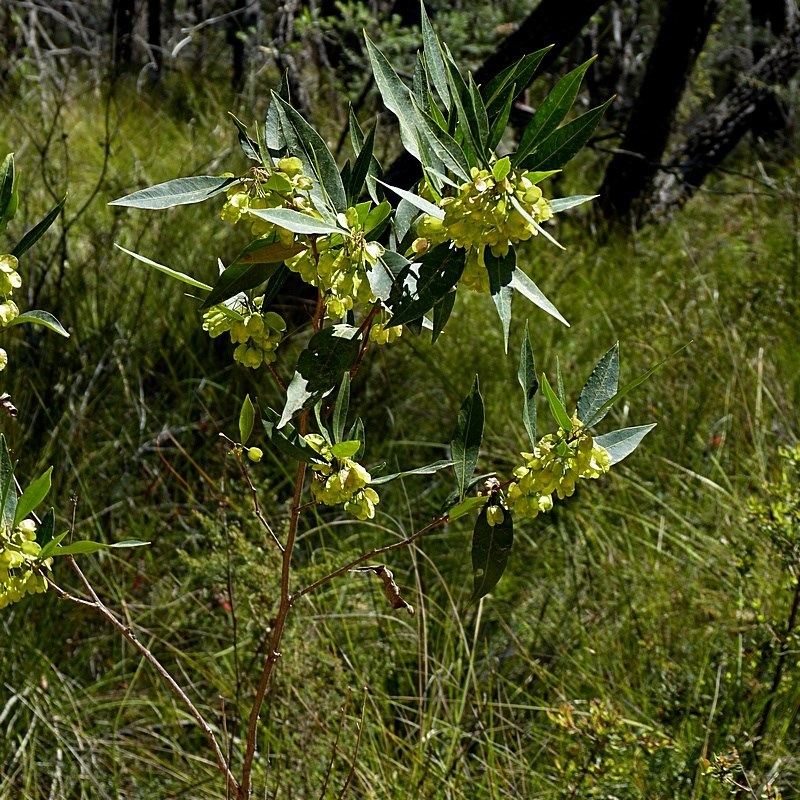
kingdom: Plantae
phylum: Tracheophyta
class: Magnoliopsida
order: Sapindales
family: Sapindaceae
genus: Dodonaea
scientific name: Dodonaea triquetra
